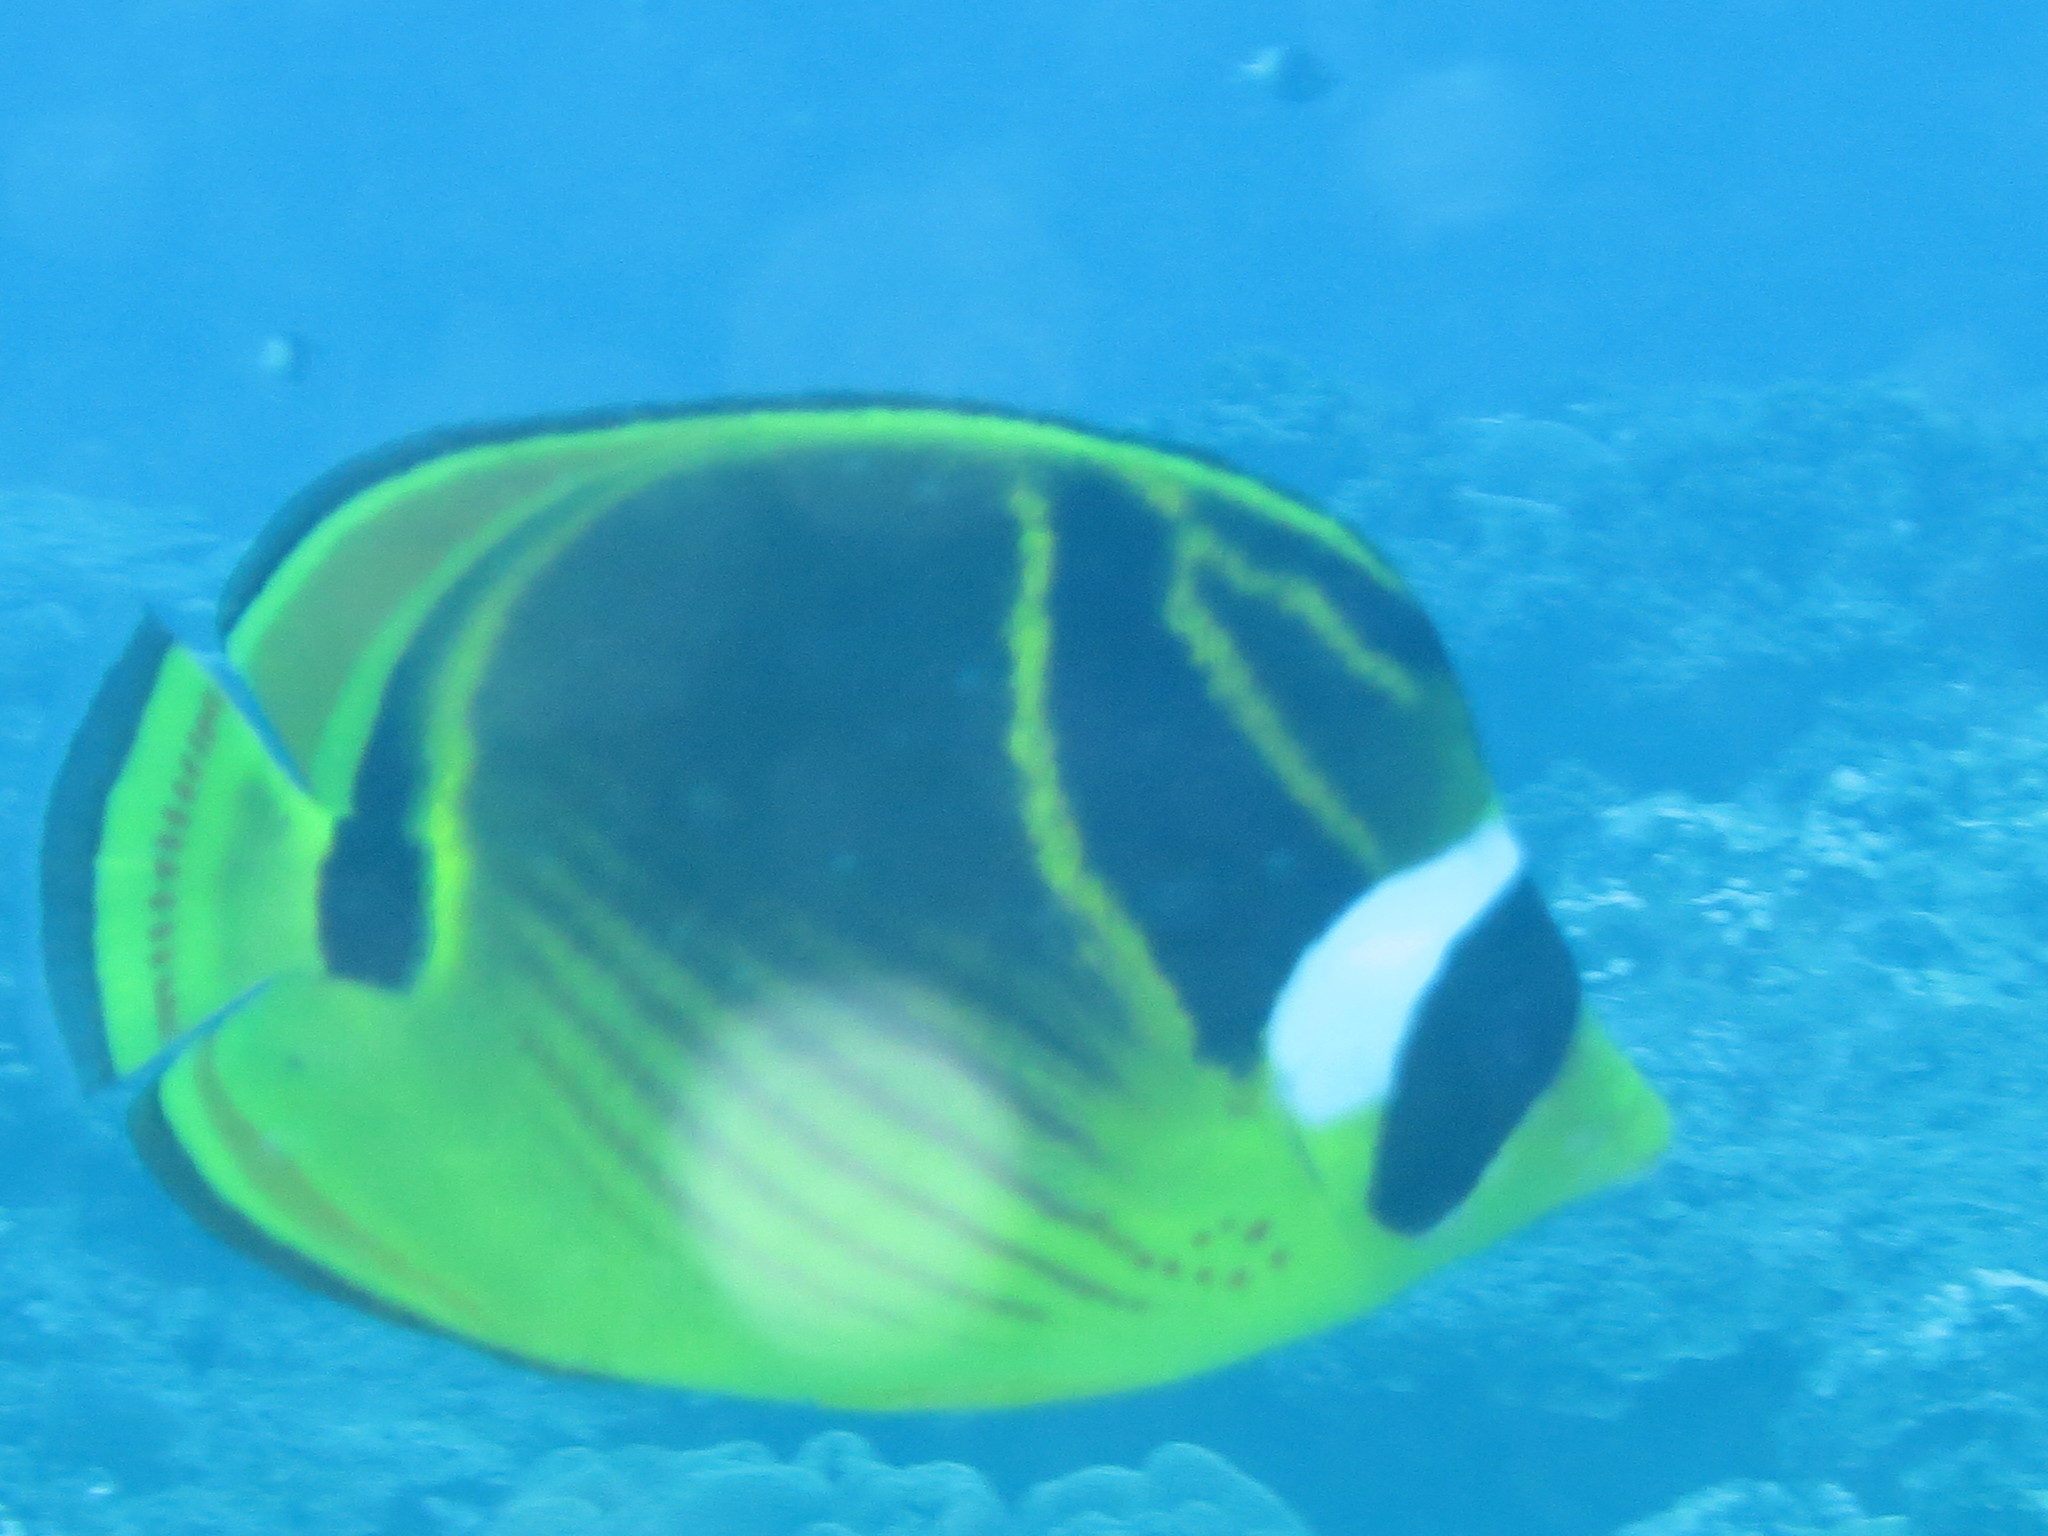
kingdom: Animalia
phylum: Chordata
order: Perciformes
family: Chaetodontidae
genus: Chaetodon
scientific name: Chaetodon lunula
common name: Raccoon butterflyfish
